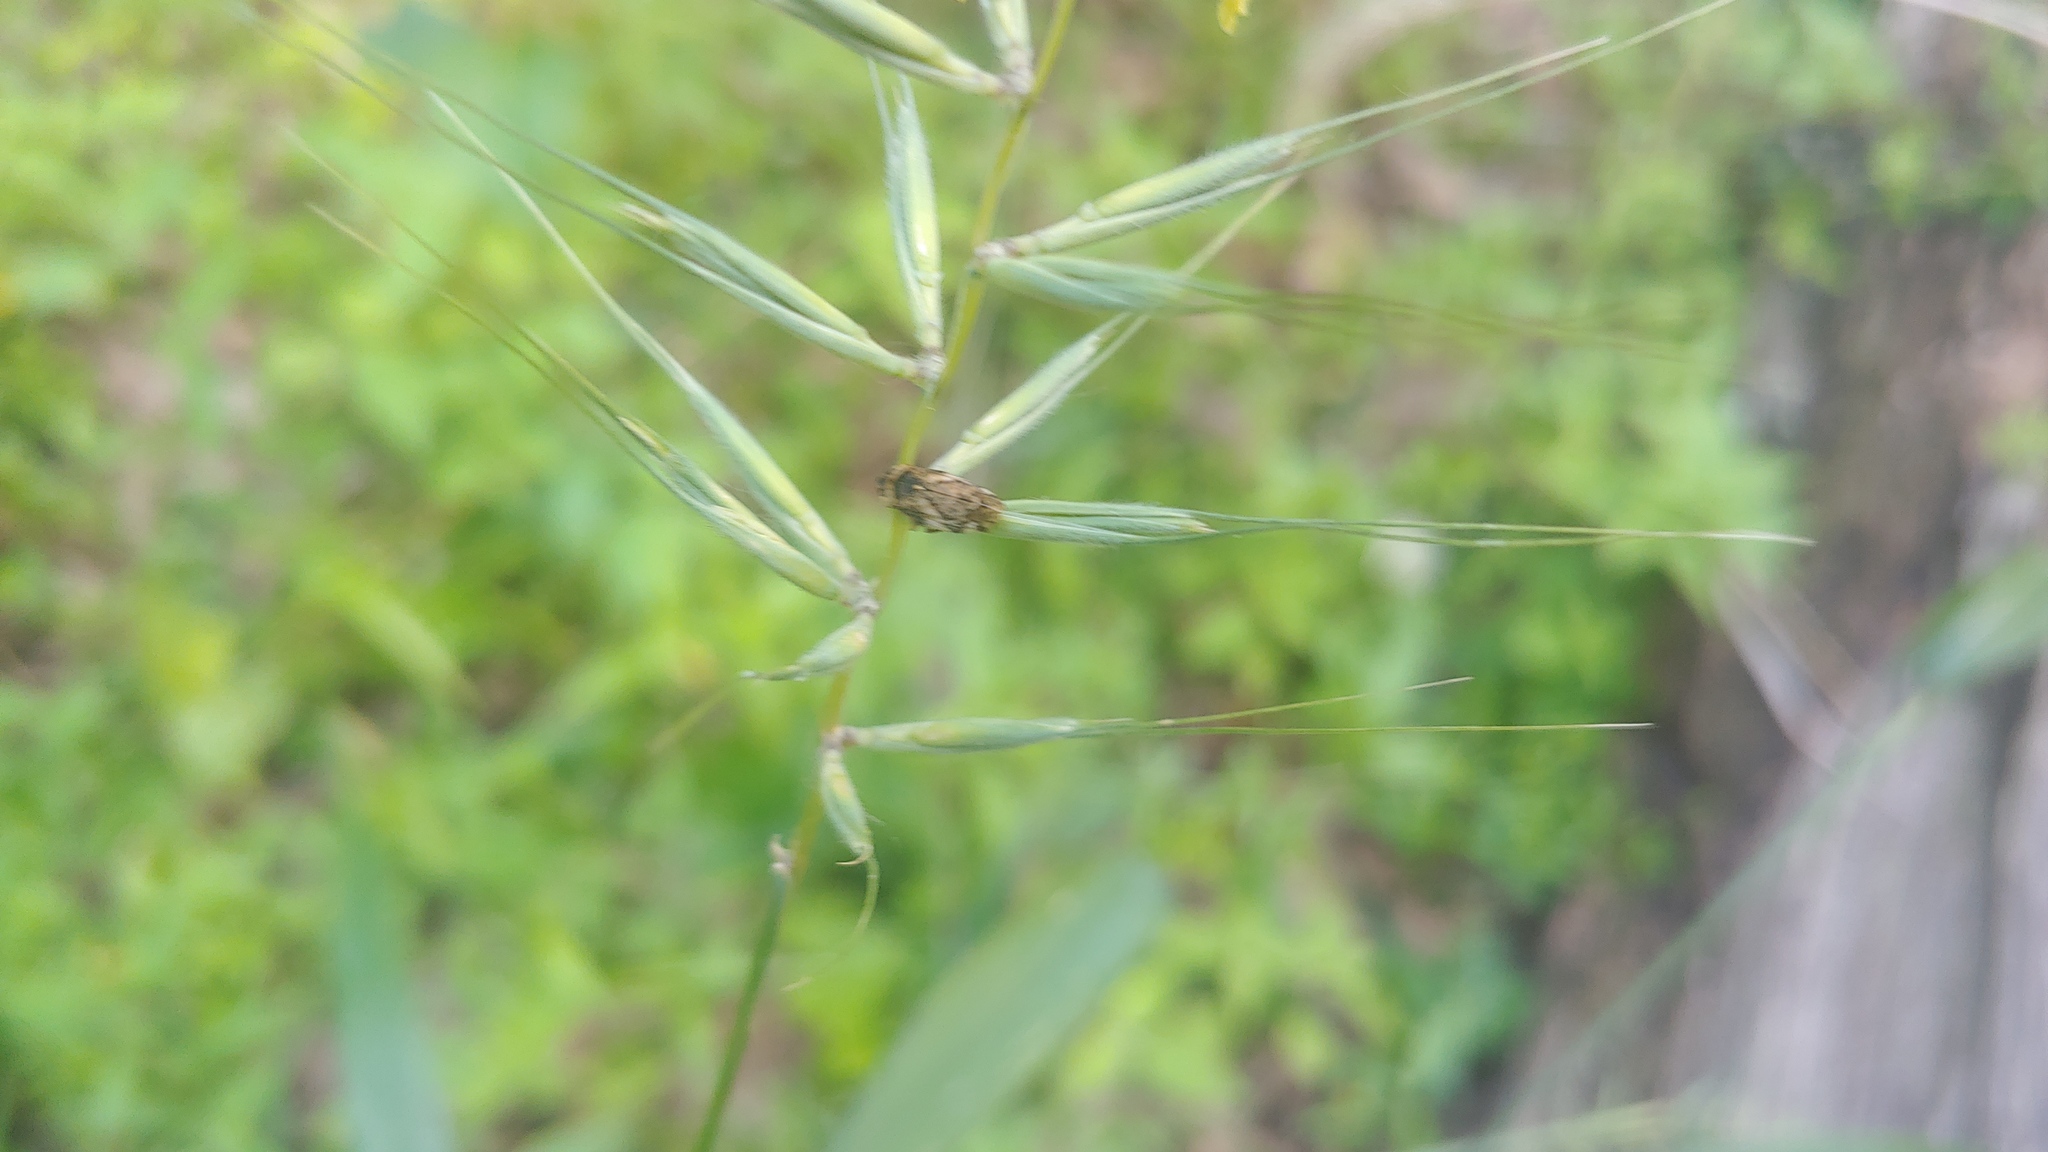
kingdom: Animalia
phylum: Arthropoda
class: Insecta
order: Hemiptera
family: Aphrophoridae
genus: Philaenus
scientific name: Philaenus spumarius
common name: Meadow spittlebug
